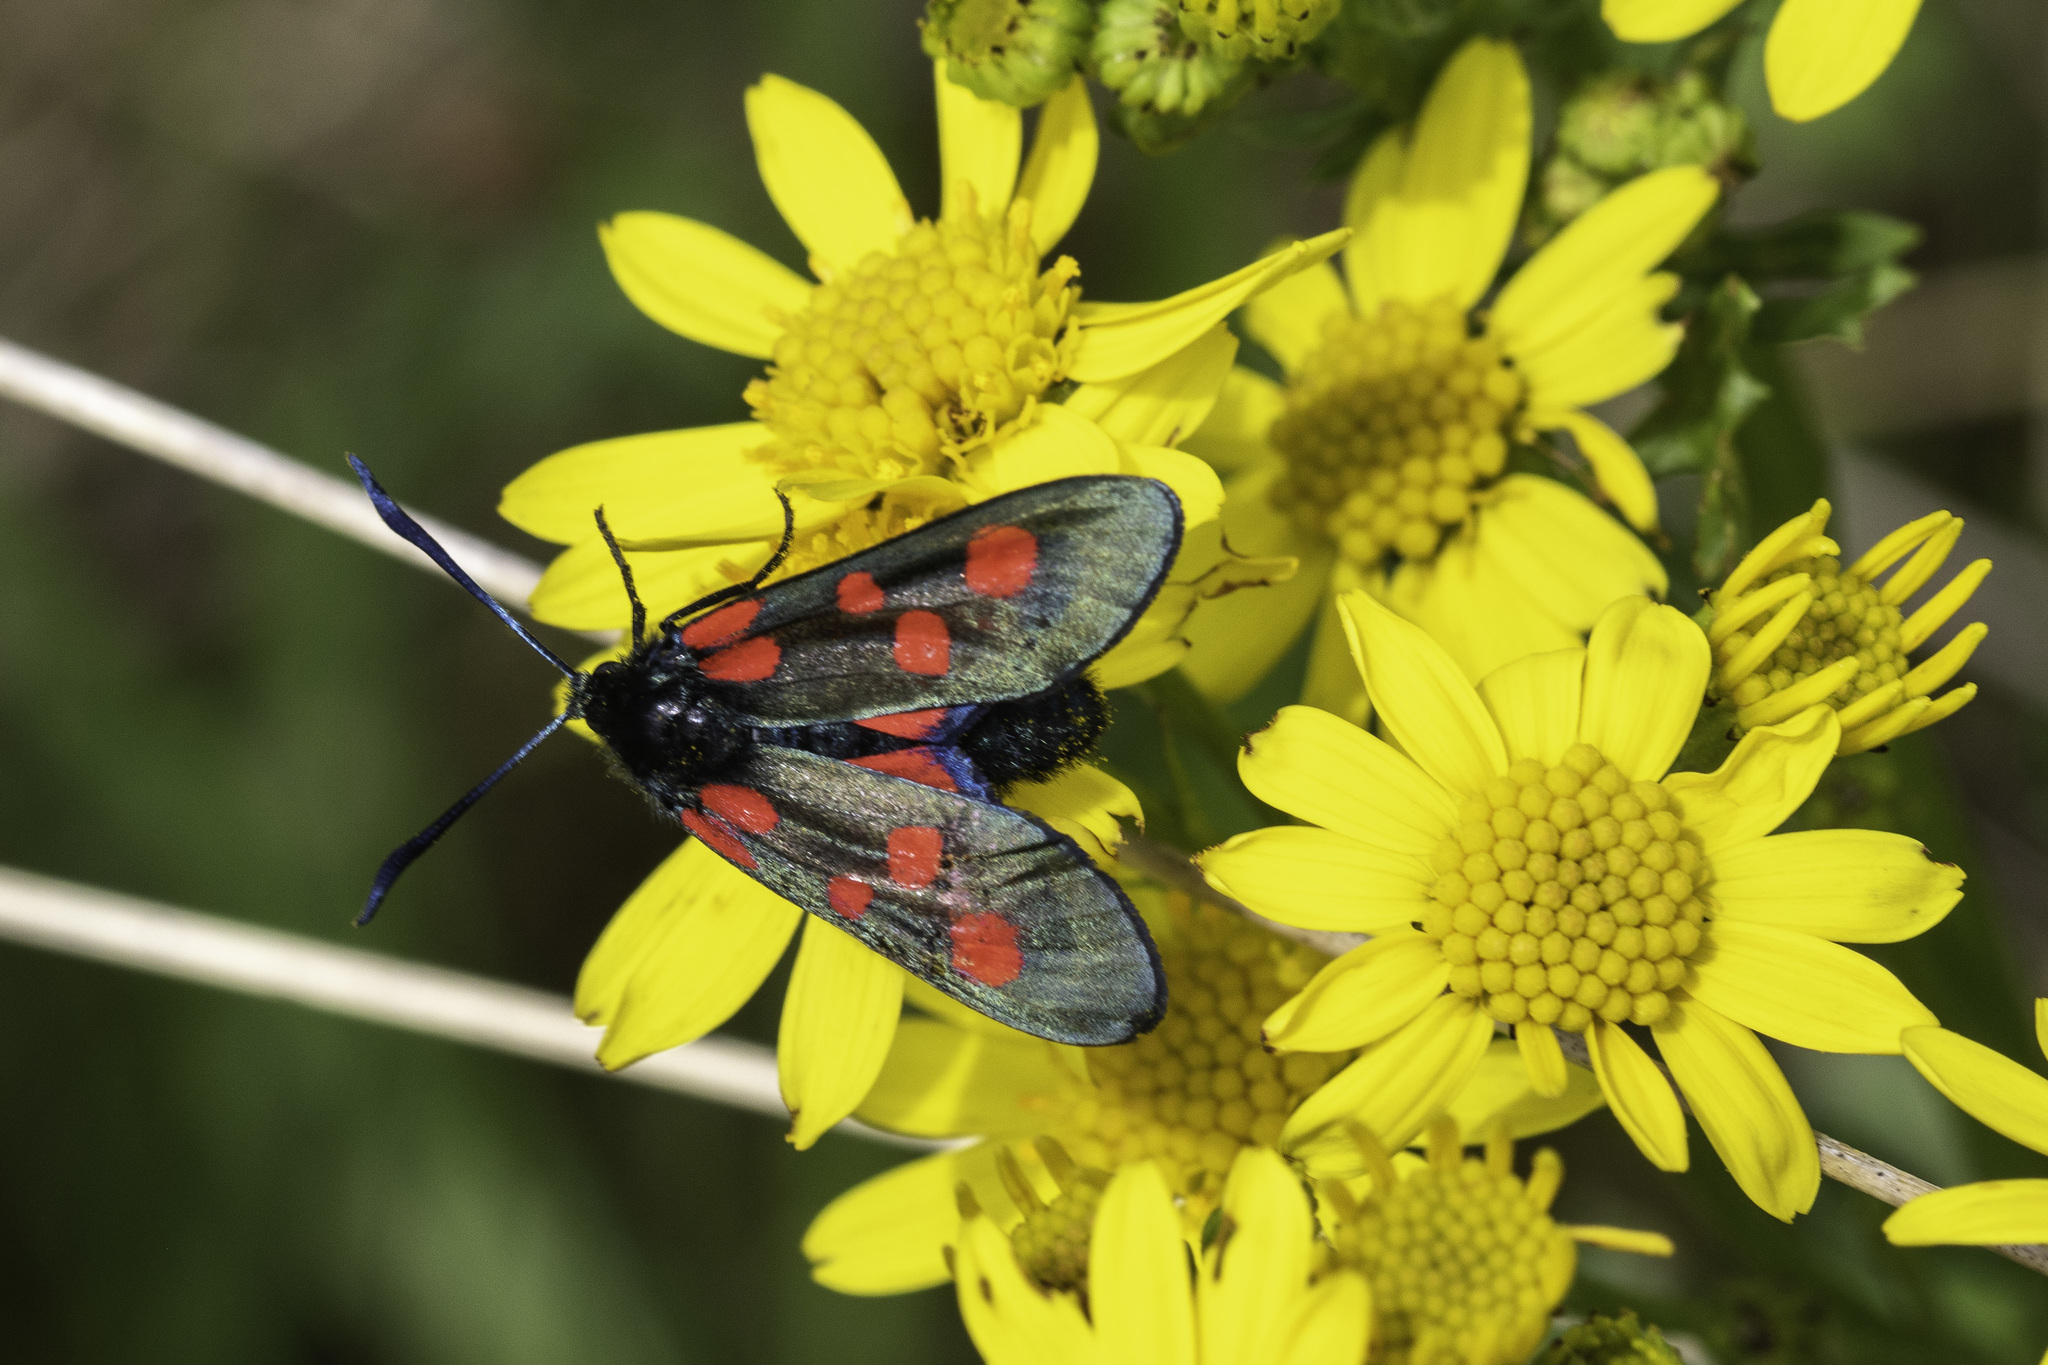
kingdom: Animalia
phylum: Arthropoda
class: Insecta
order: Lepidoptera
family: Zygaenidae
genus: Zygaena
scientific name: Zygaena lonicerae
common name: Narrow-bordered five-spot burnet
